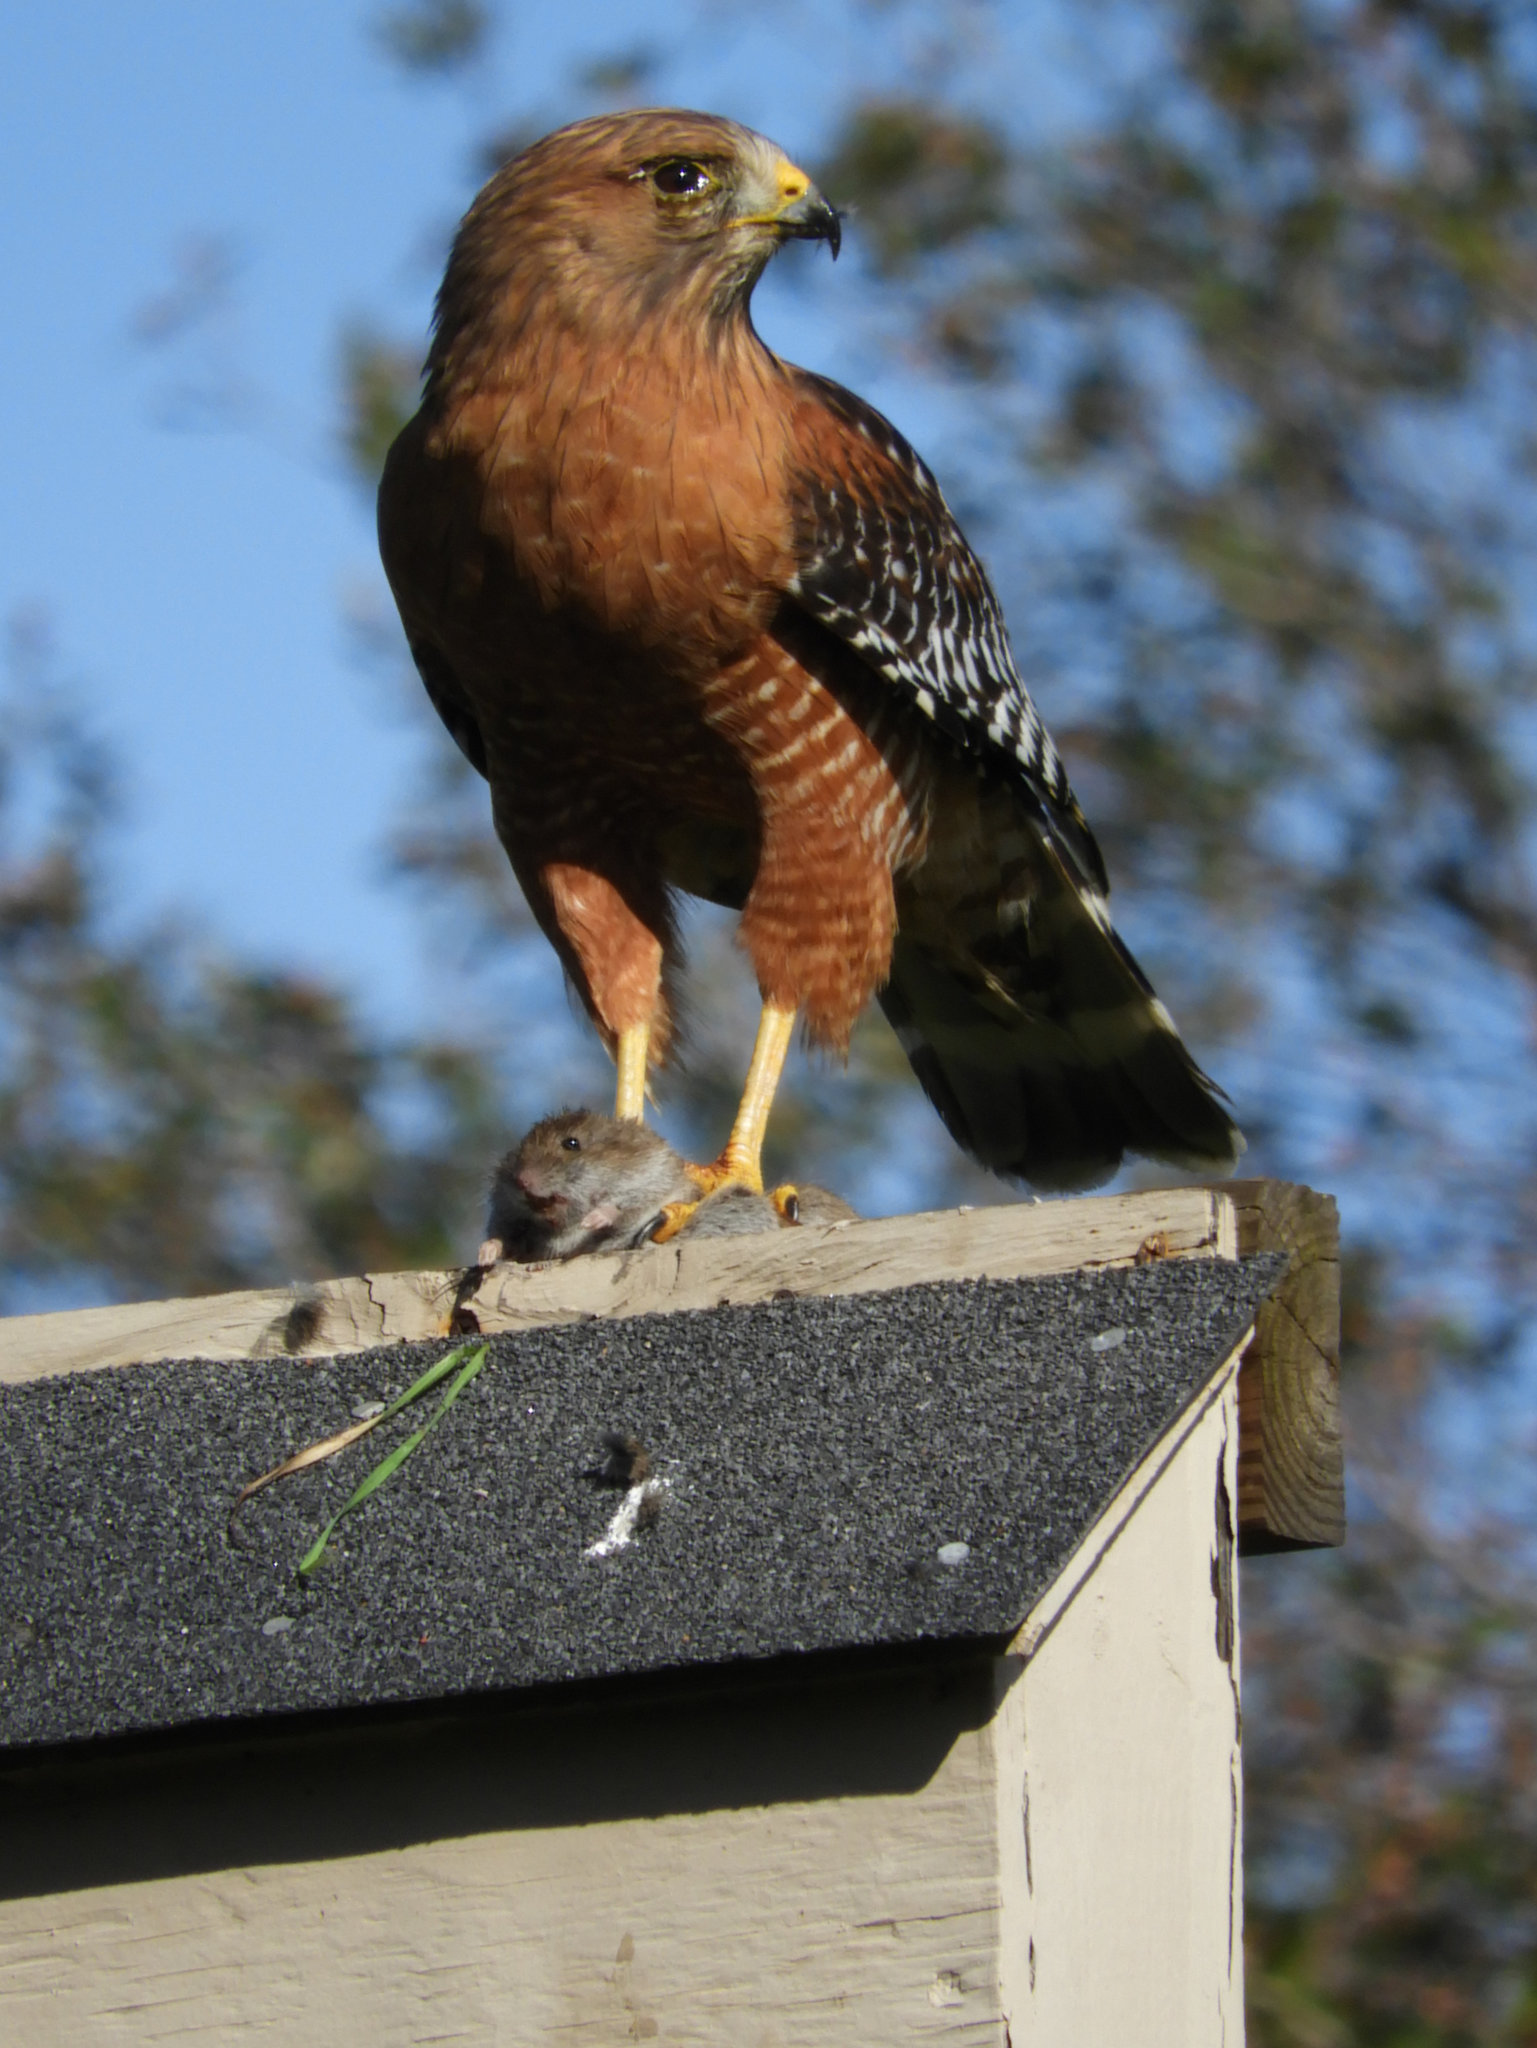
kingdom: Animalia
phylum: Chordata
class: Aves
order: Accipitriformes
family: Accipitridae
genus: Buteo
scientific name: Buteo lineatus
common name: Red-shouldered hawk
